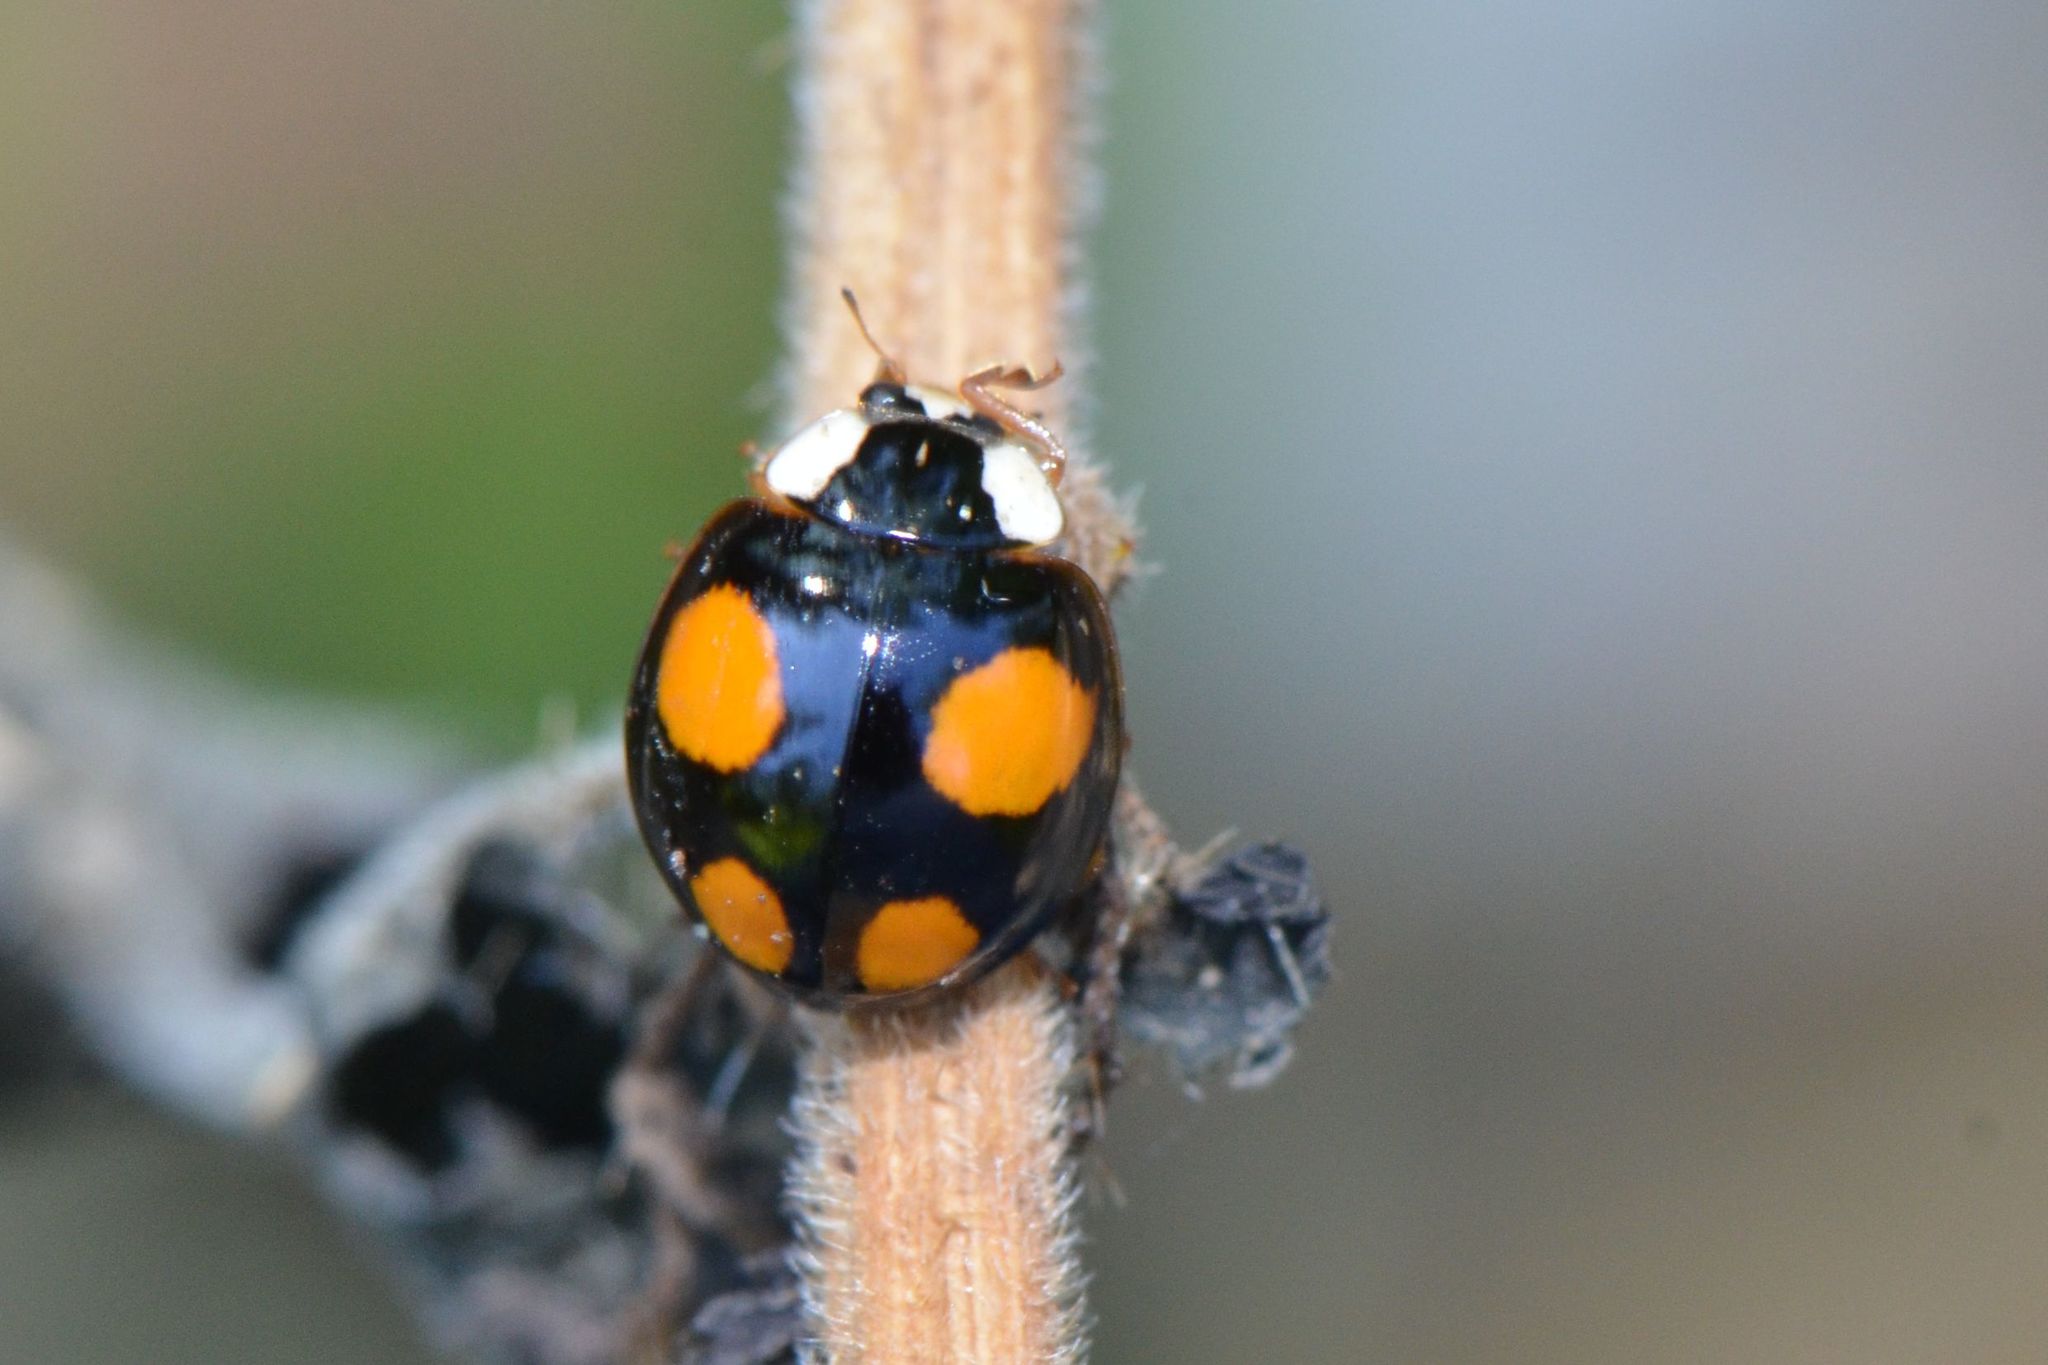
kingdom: Animalia
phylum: Arthropoda
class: Insecta
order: Coleoptera
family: Coccinellidae
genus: Harmonia
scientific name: Harmonia axyridis
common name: Harlequin ladybird
